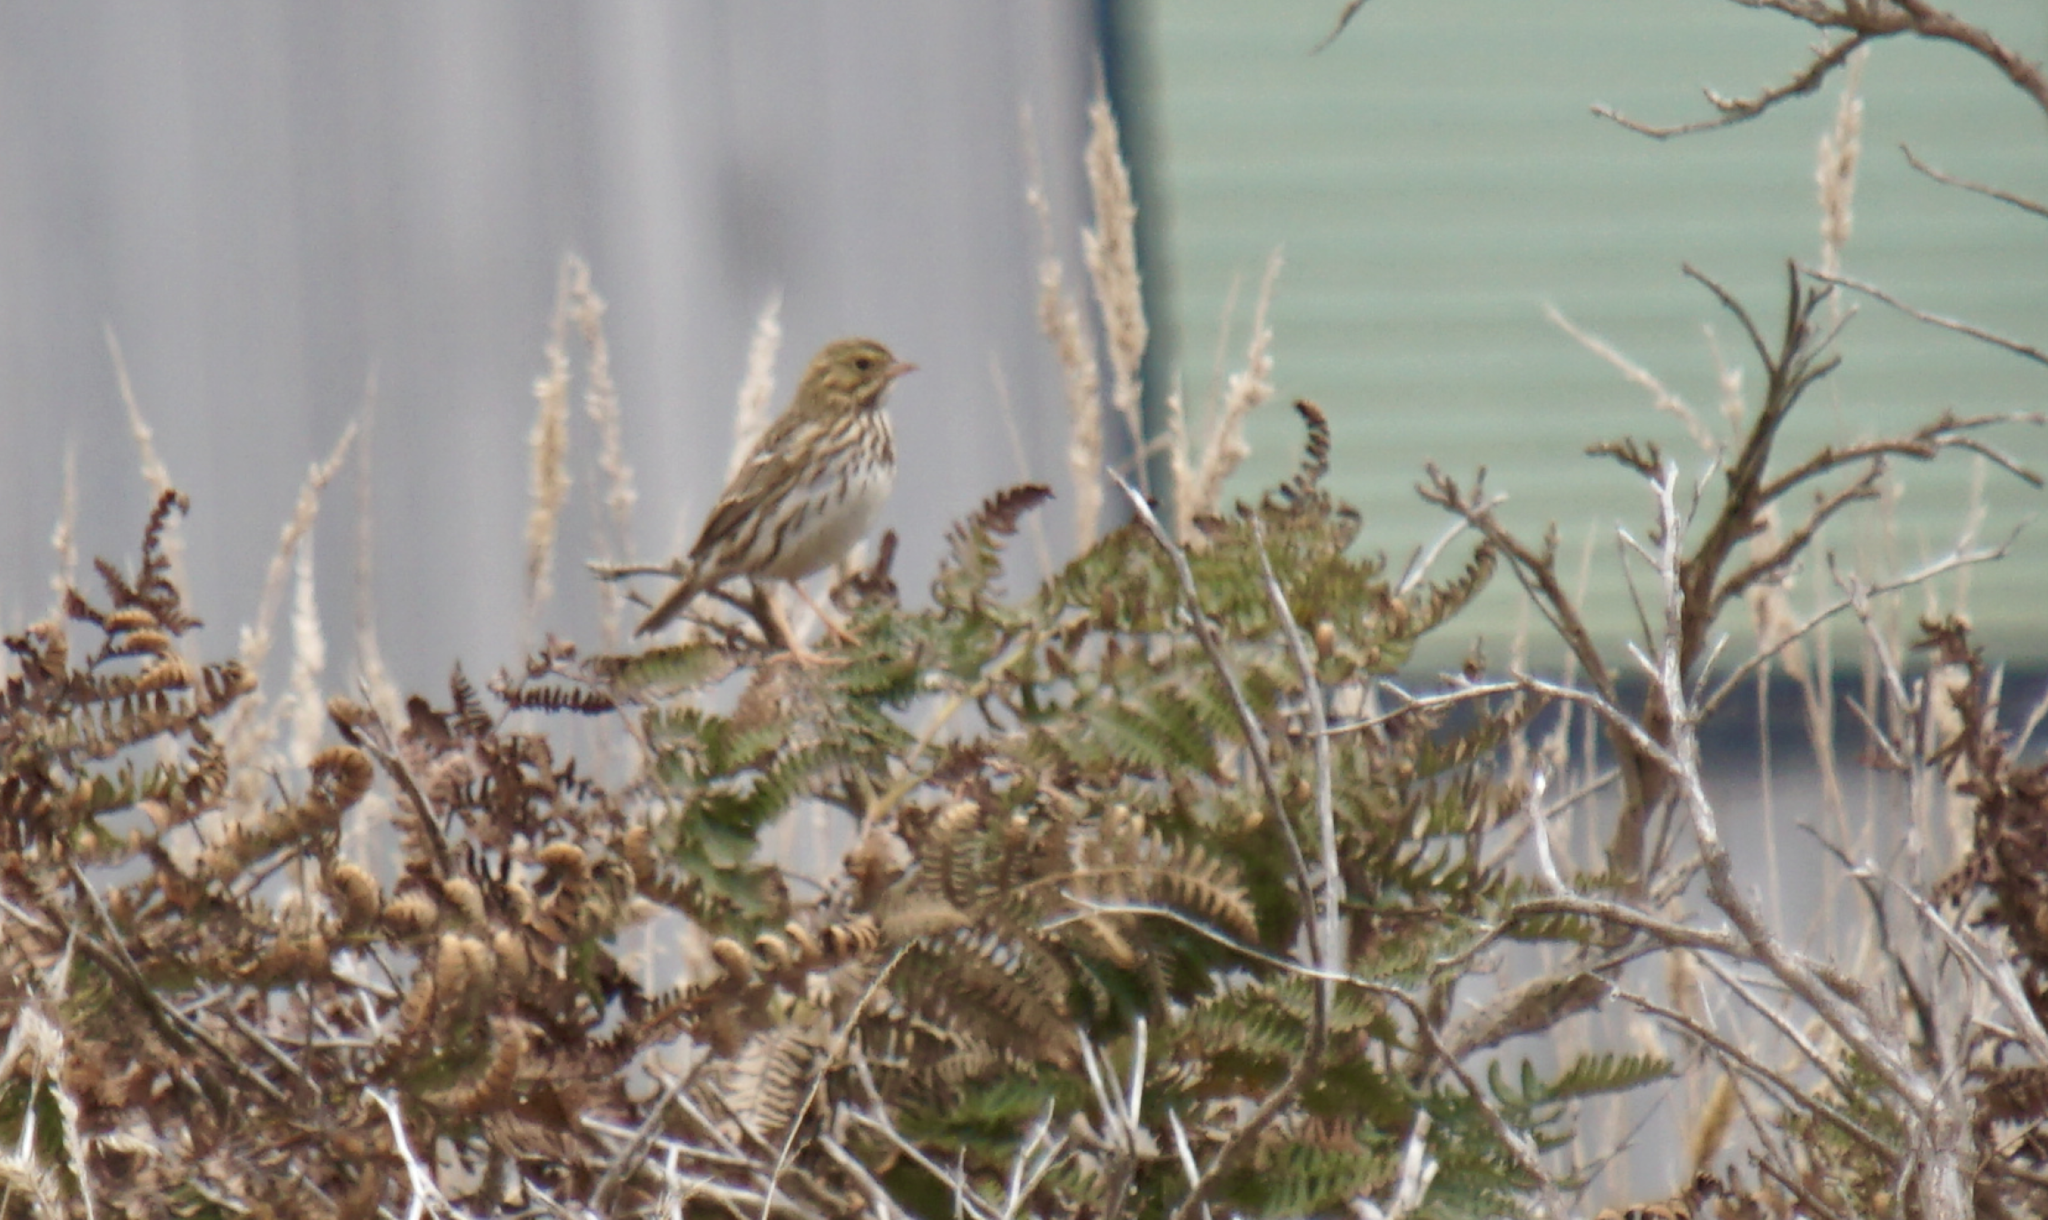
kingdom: Animalia
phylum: Chordata
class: Aves
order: Passeriformes
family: Passerellidae
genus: Passerculus
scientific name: Passerculus sandwichensis
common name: Savannah sparrow
